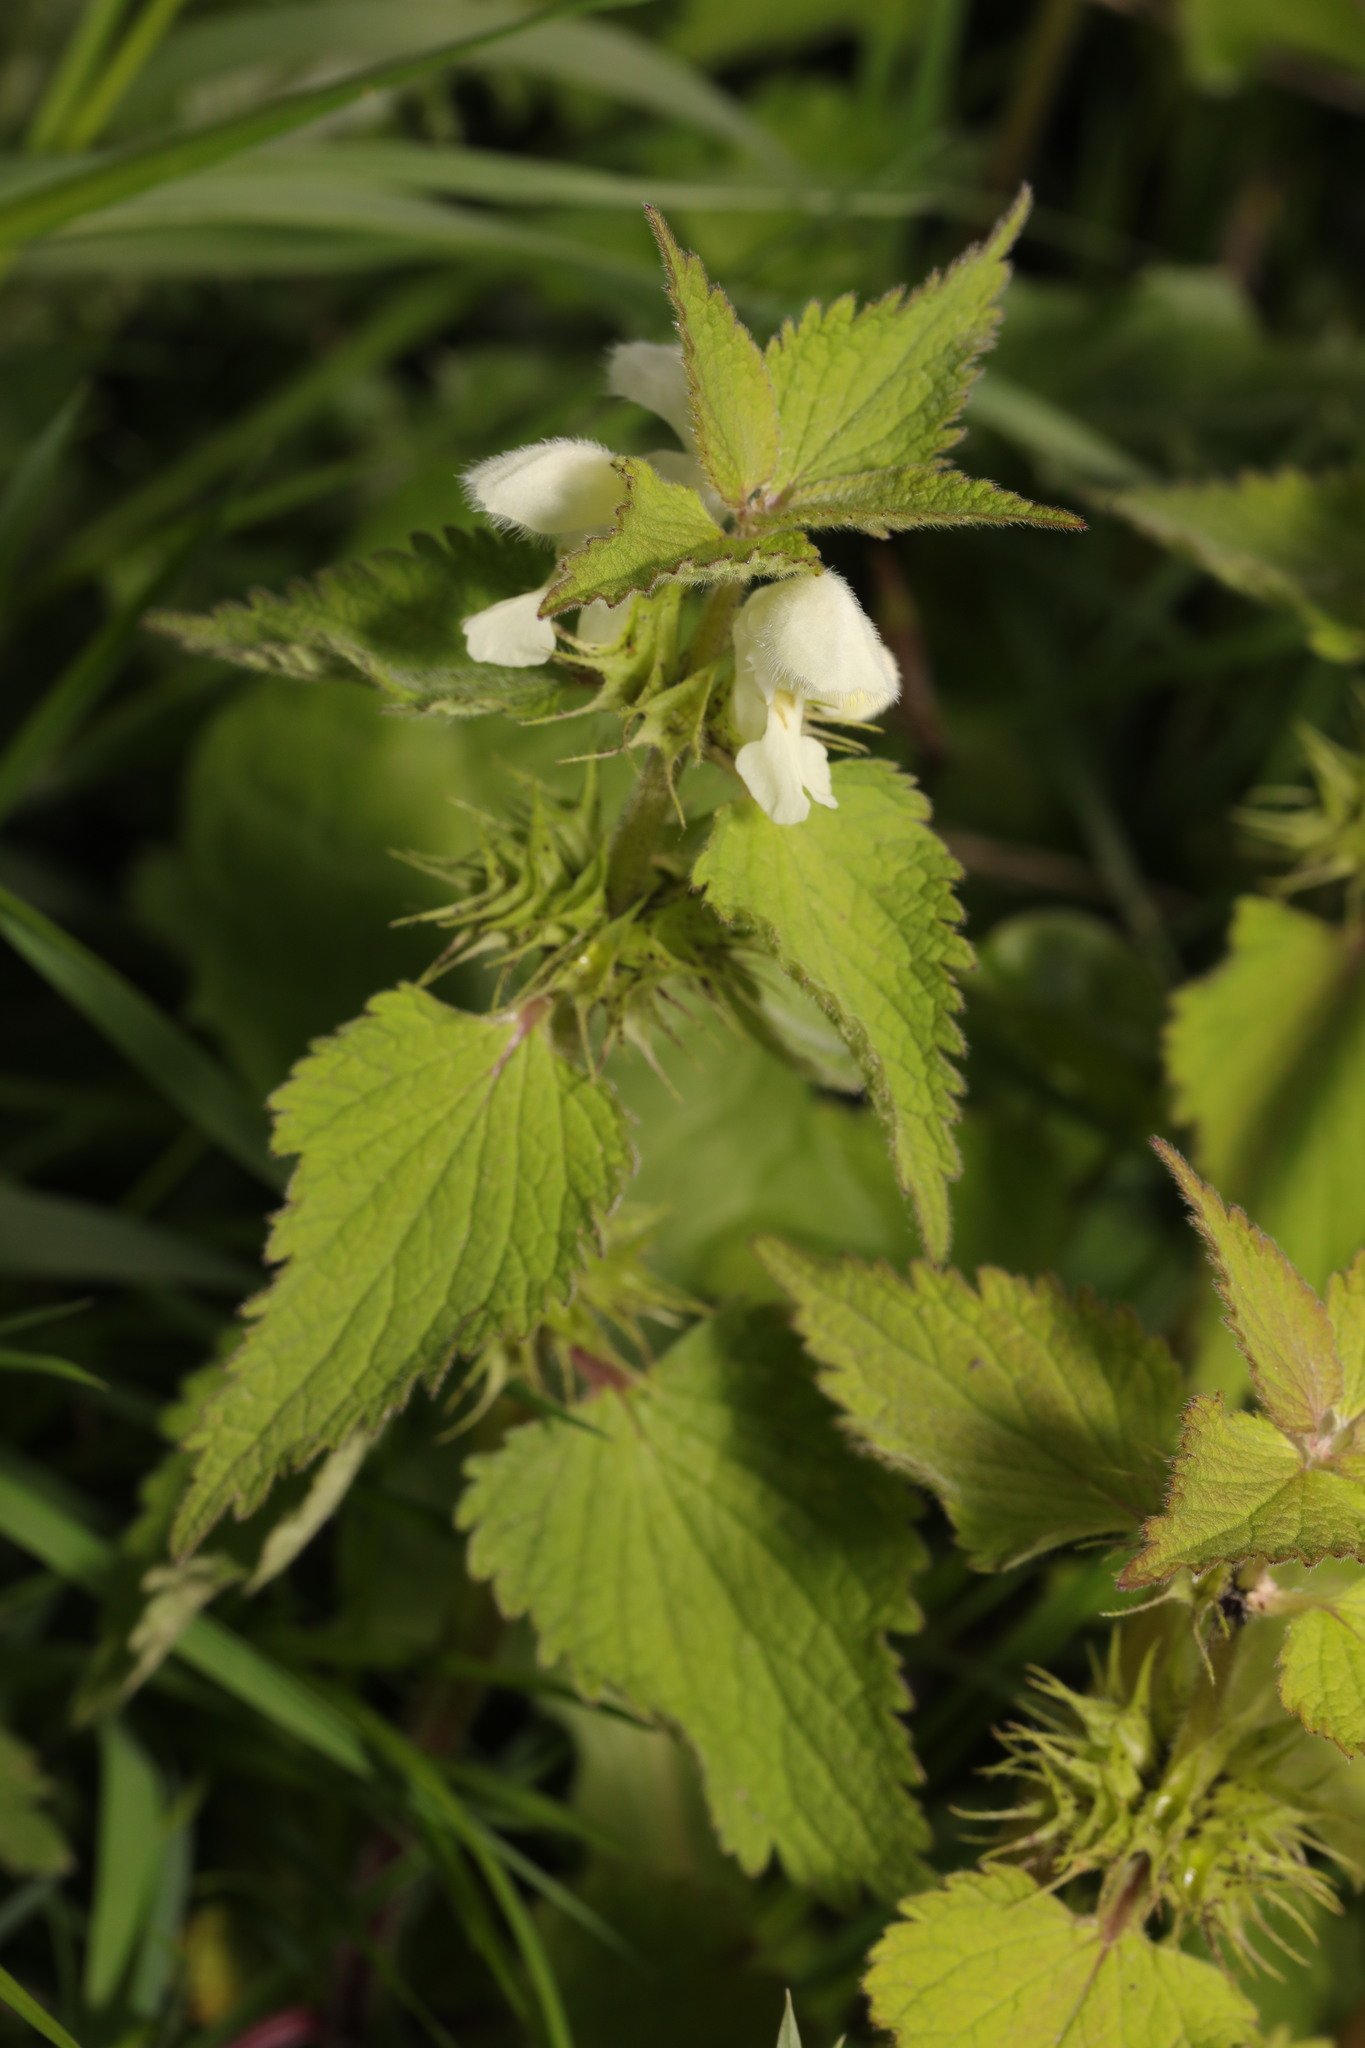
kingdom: Plantae
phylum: Tracheophyta
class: Magnoliopsida
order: Lamiales
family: Lamiaceae
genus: Lamium
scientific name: Lamium album
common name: White dead-nettle
